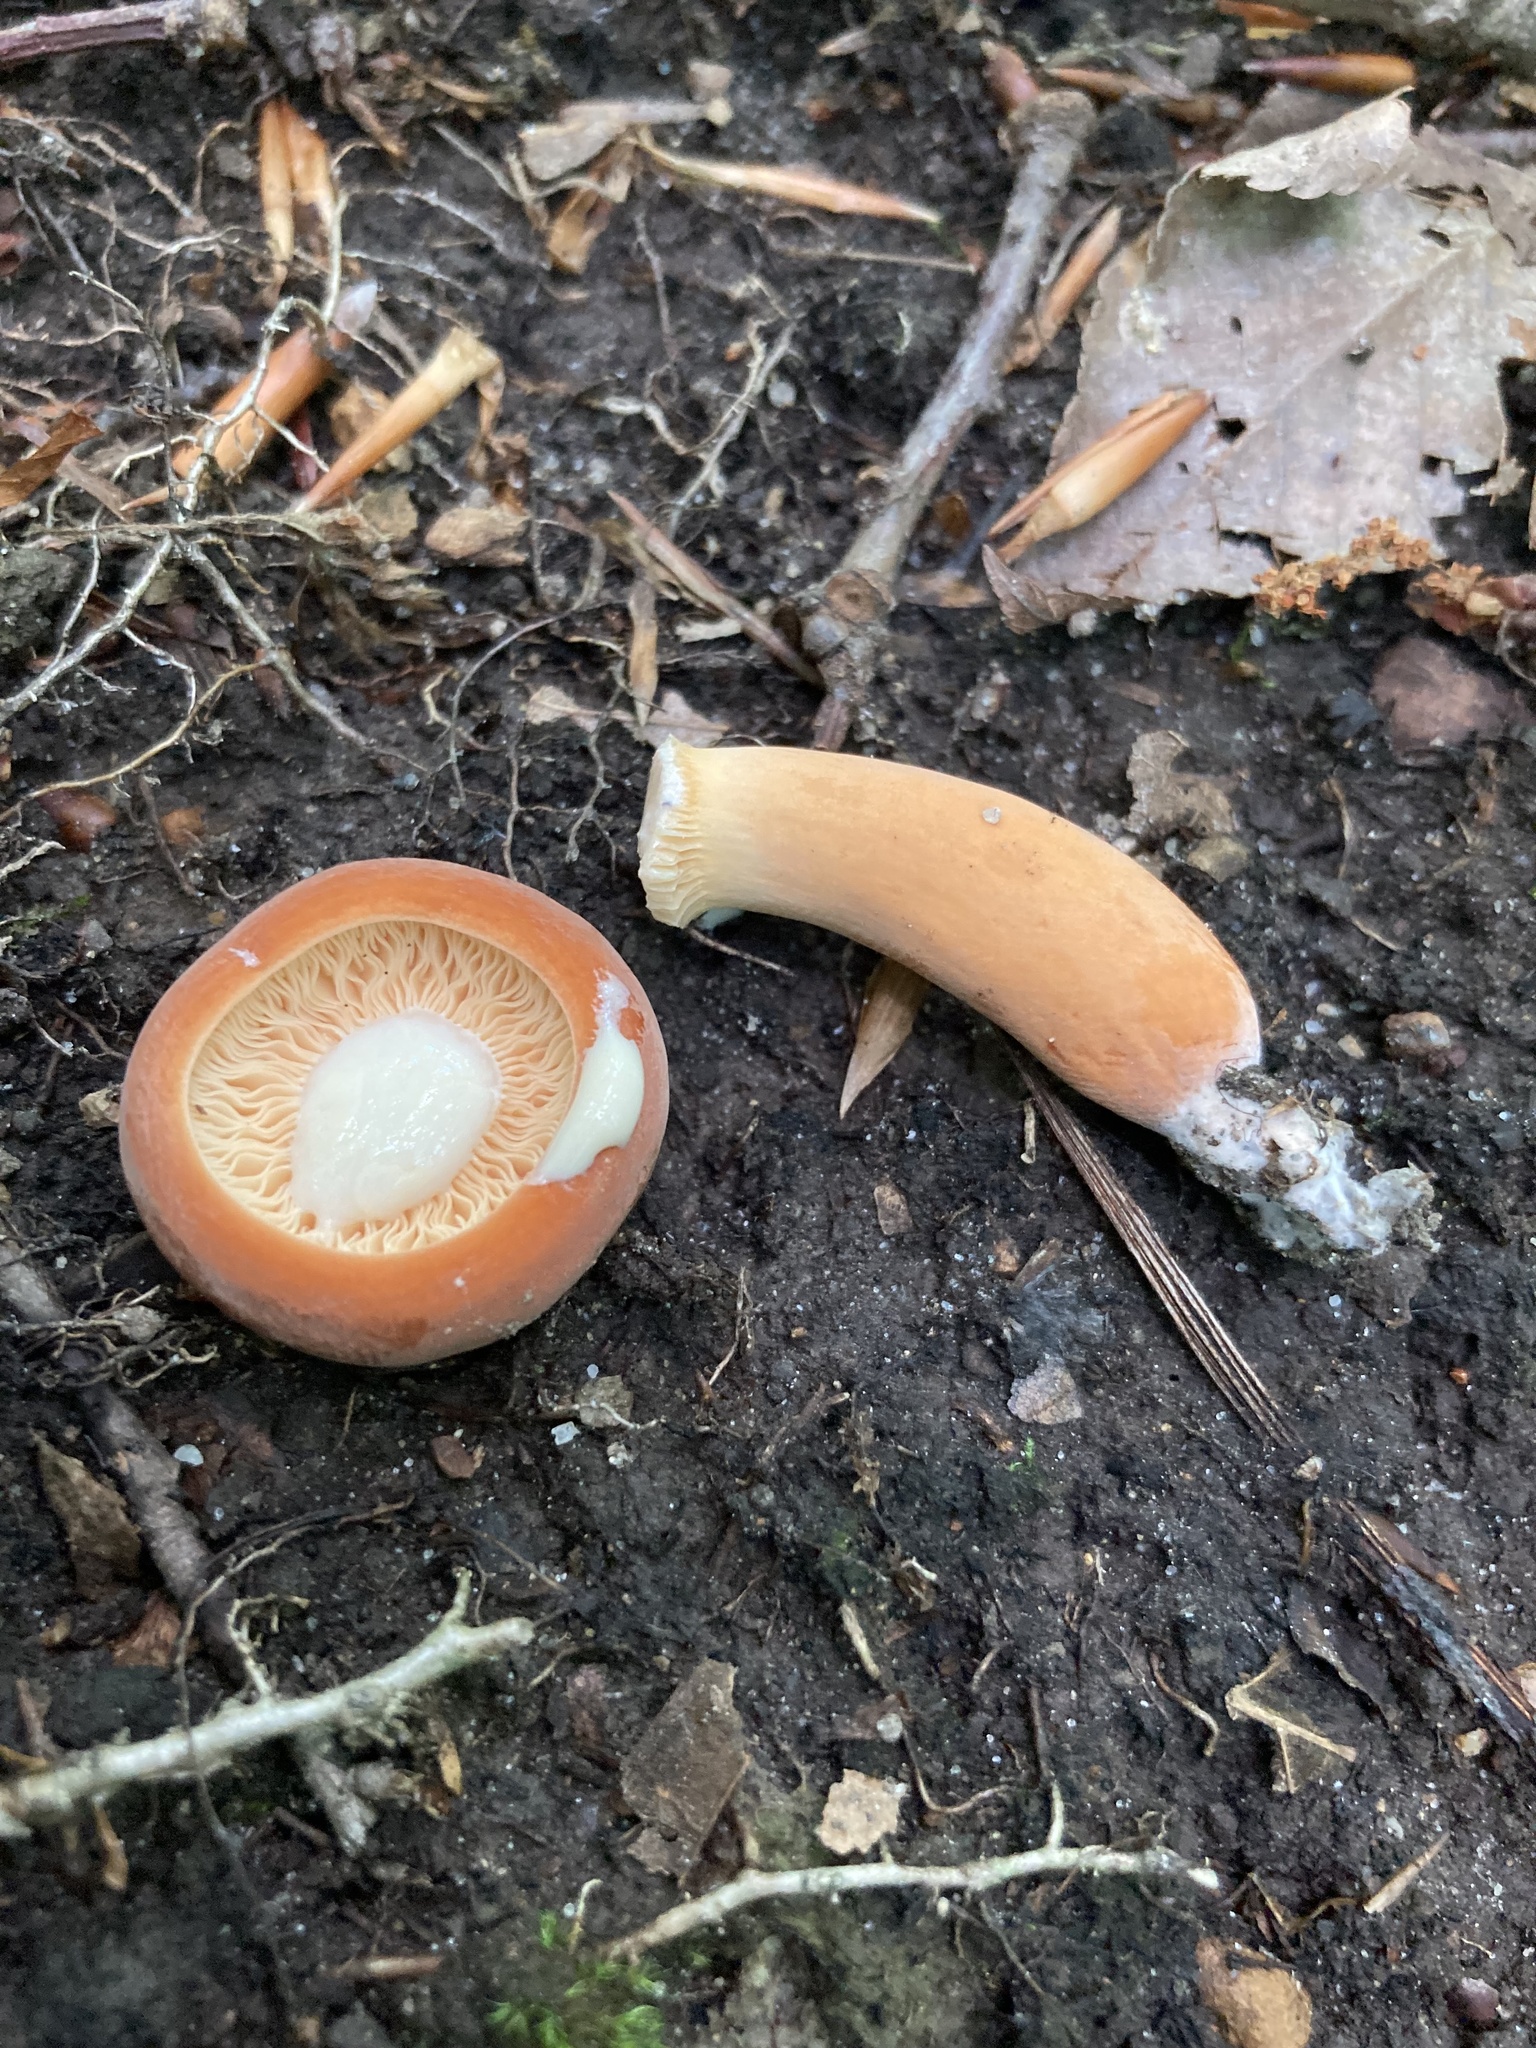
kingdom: Fungi
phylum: Basidiomycota
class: Agaricomycetes
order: Russulales
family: Russulaceae
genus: Lactifluus
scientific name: Lactifluus volemus
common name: Fishy milkcap
